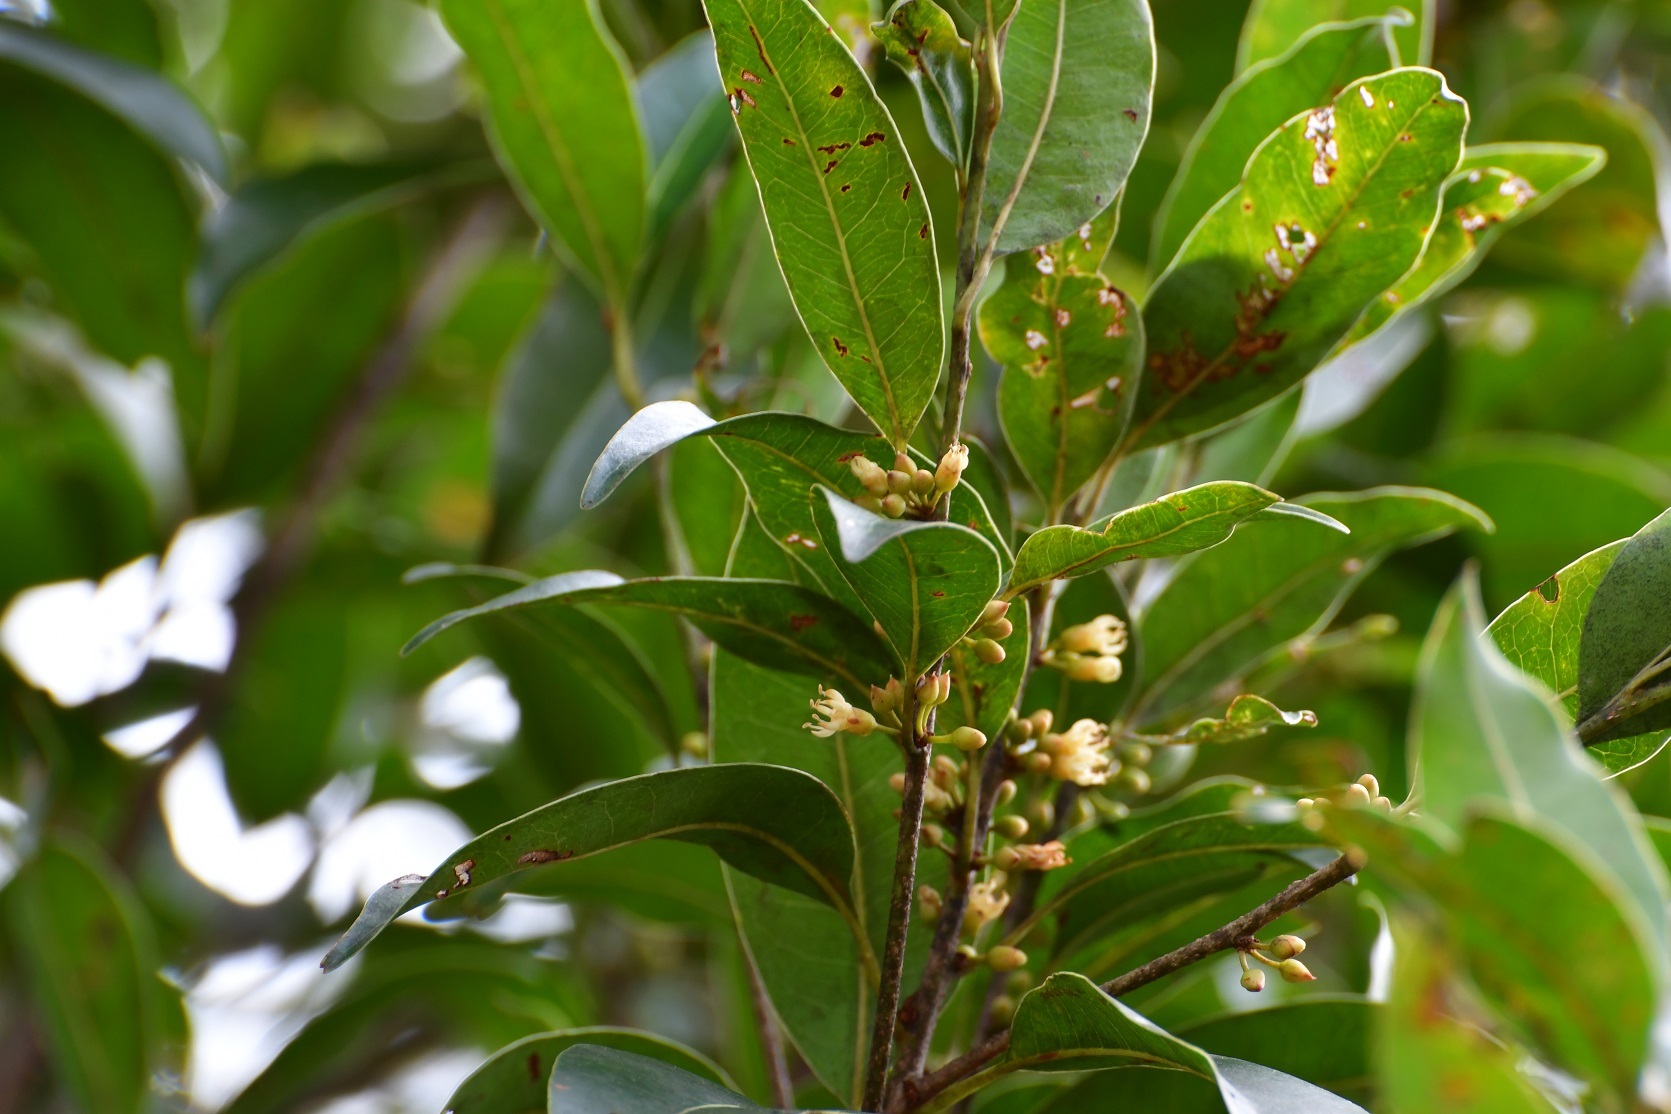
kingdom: Plantae
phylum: Tracheophyta
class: Magnoliopsida
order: Ericales
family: Sapotaceae
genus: Sideroxylon
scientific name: Sideroxylon salicifolium
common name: White bully
